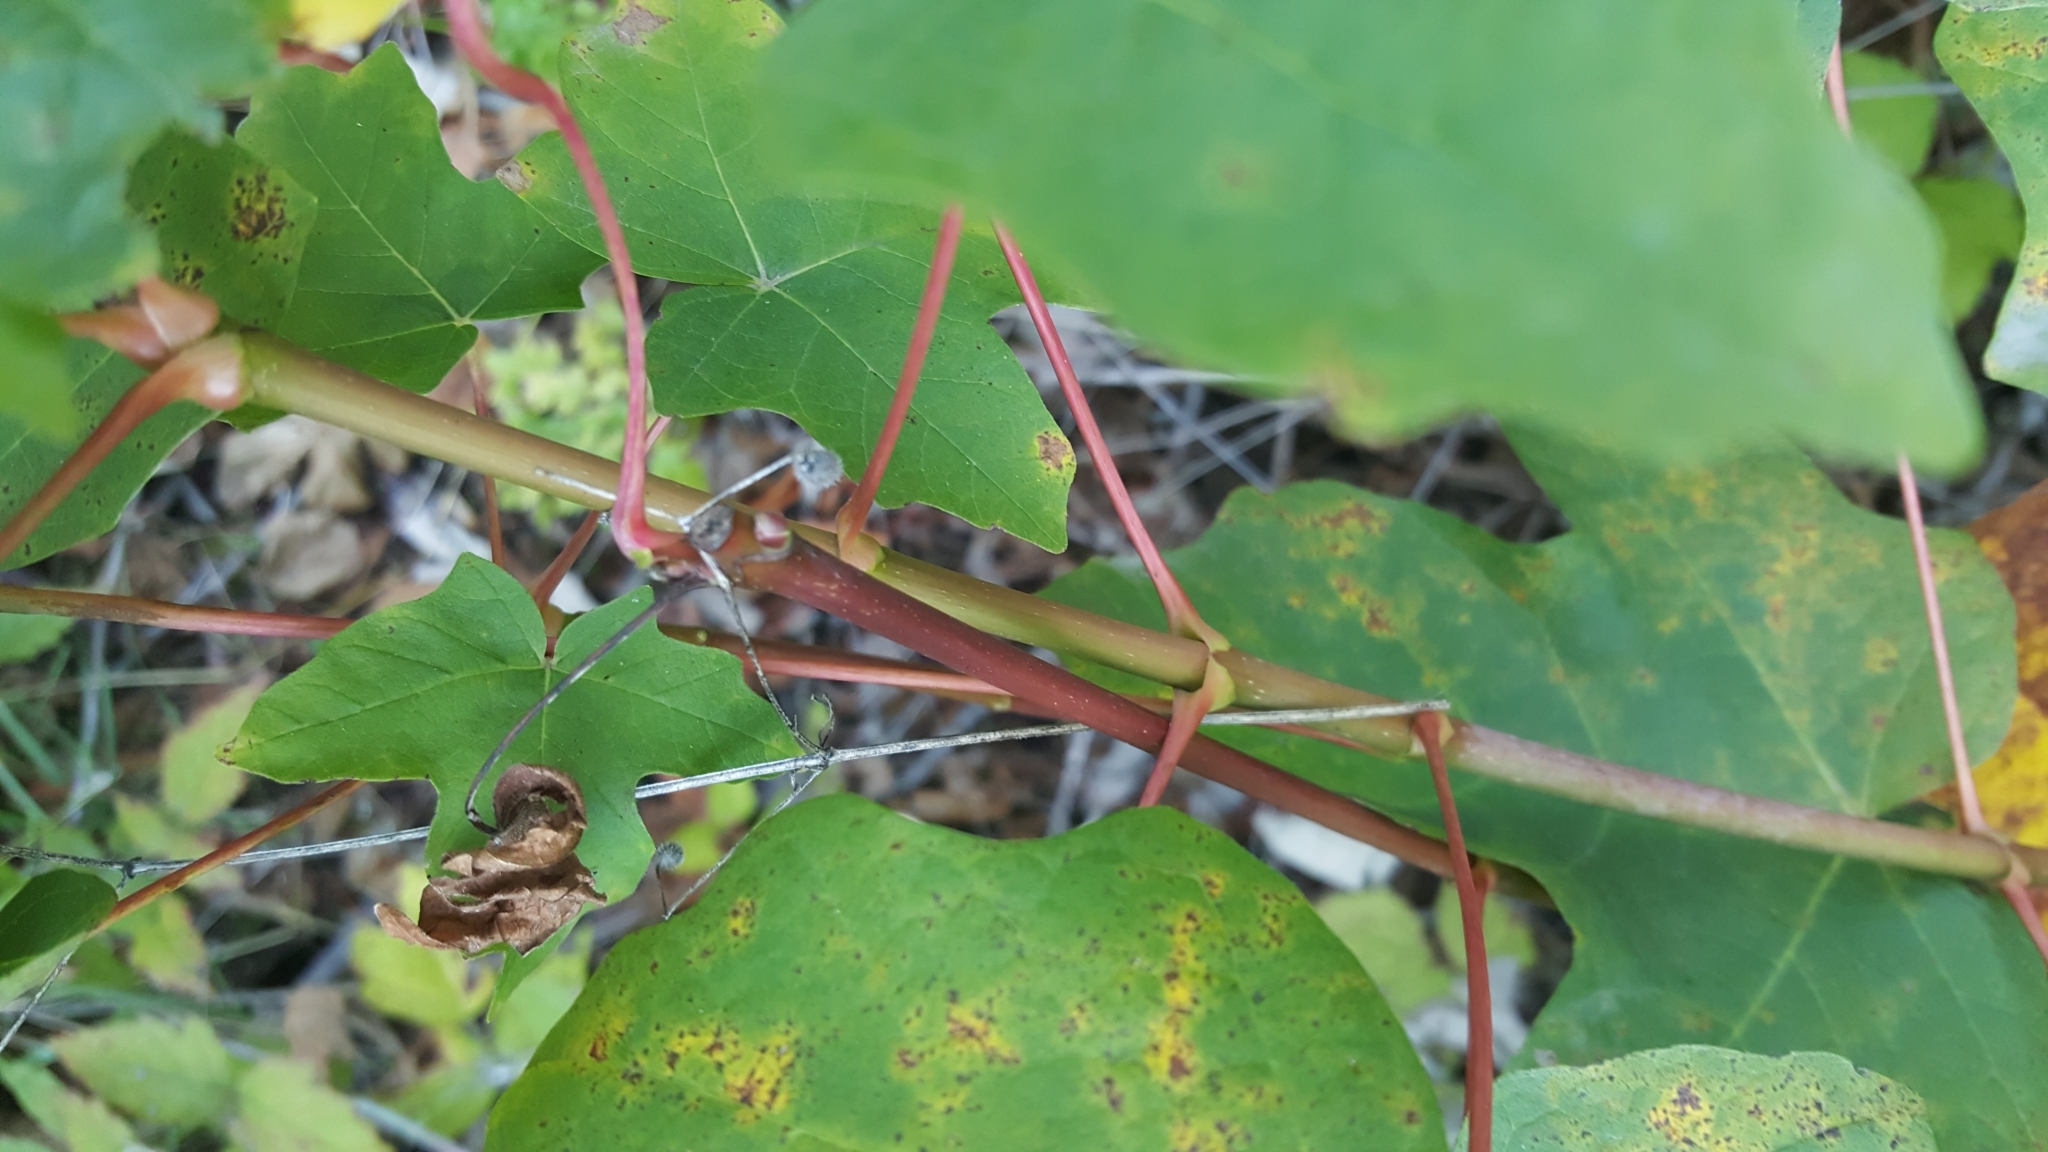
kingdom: Plantae
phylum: Tracheophyta
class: Magnoliopsida
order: Sapindales
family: Sapindaceae
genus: Acer
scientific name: Acer macrophyllum
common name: Oregon maple
